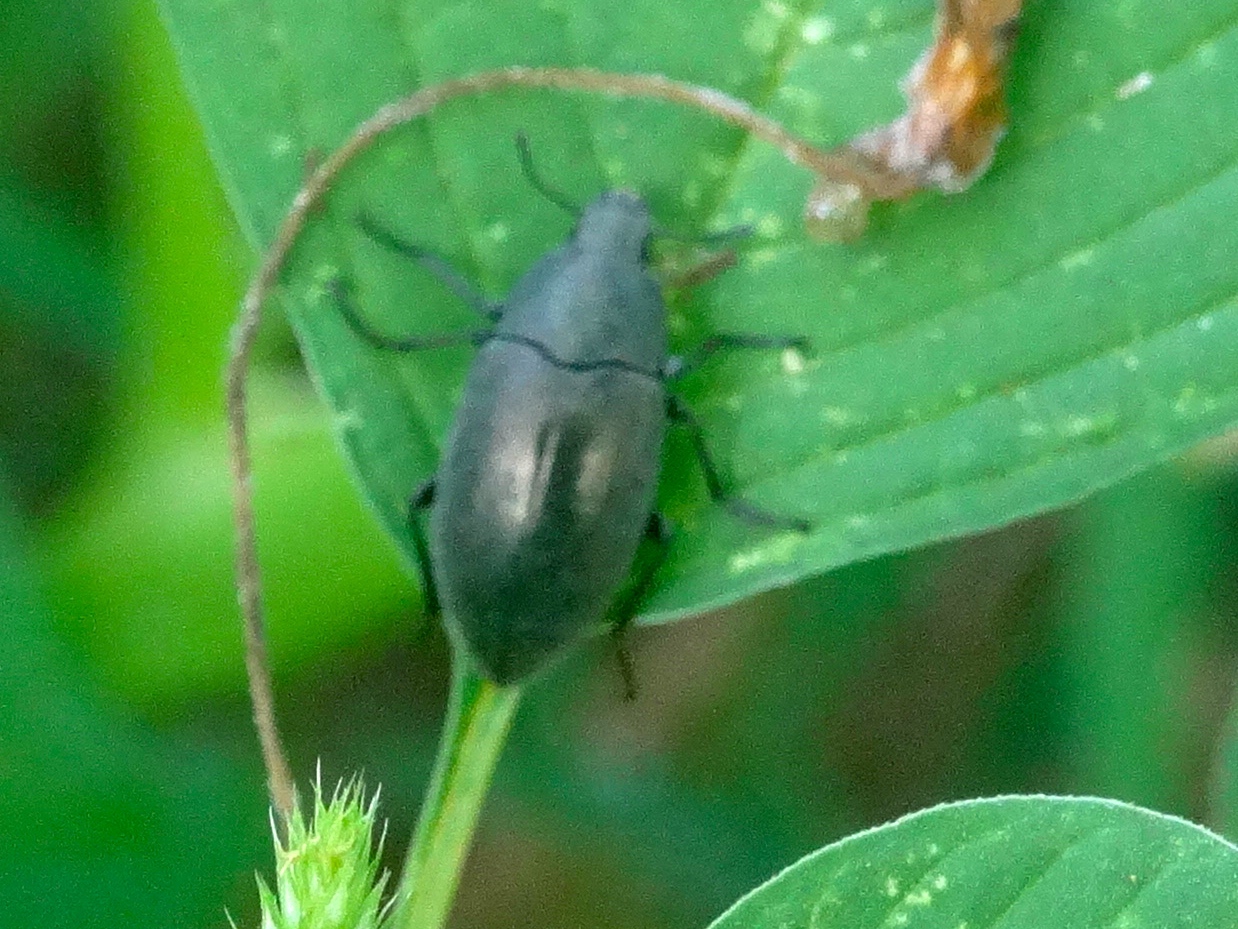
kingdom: Animalia
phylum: Arthropoda
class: Insecta
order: Coleoptera
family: Tenebrionidae
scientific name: Tenebrionidae
